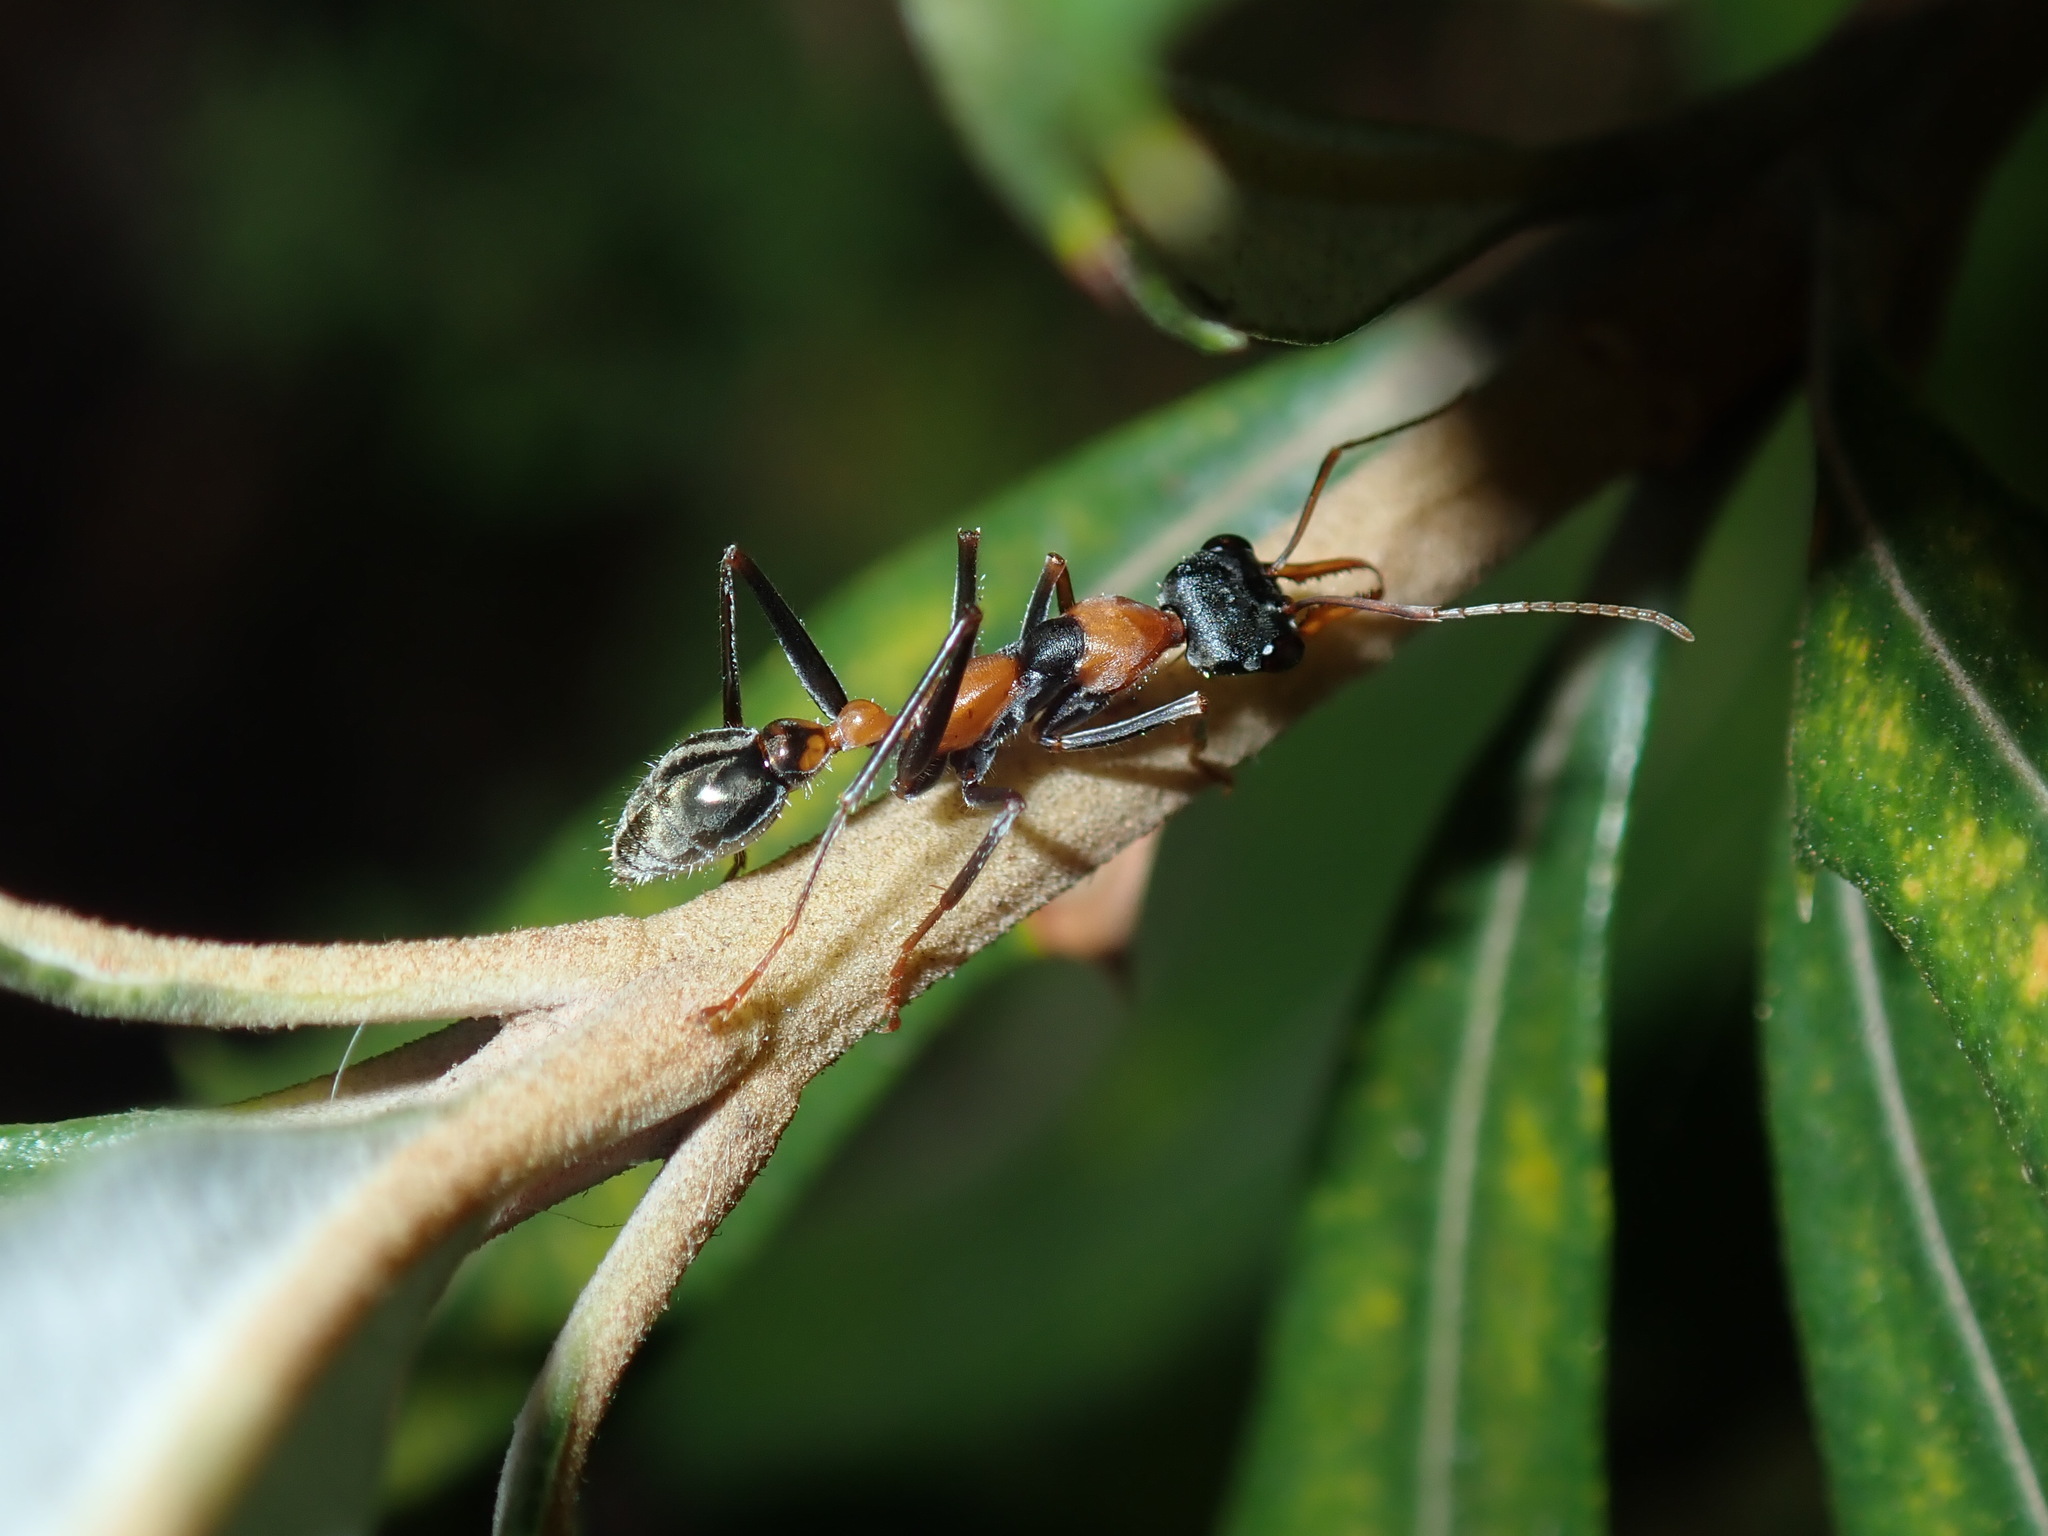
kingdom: Animalia
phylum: Arthropoda
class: Insecta
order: Hymenoptera
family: Formicidae
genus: Myrmecia
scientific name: Myrmecia nigrocincta
